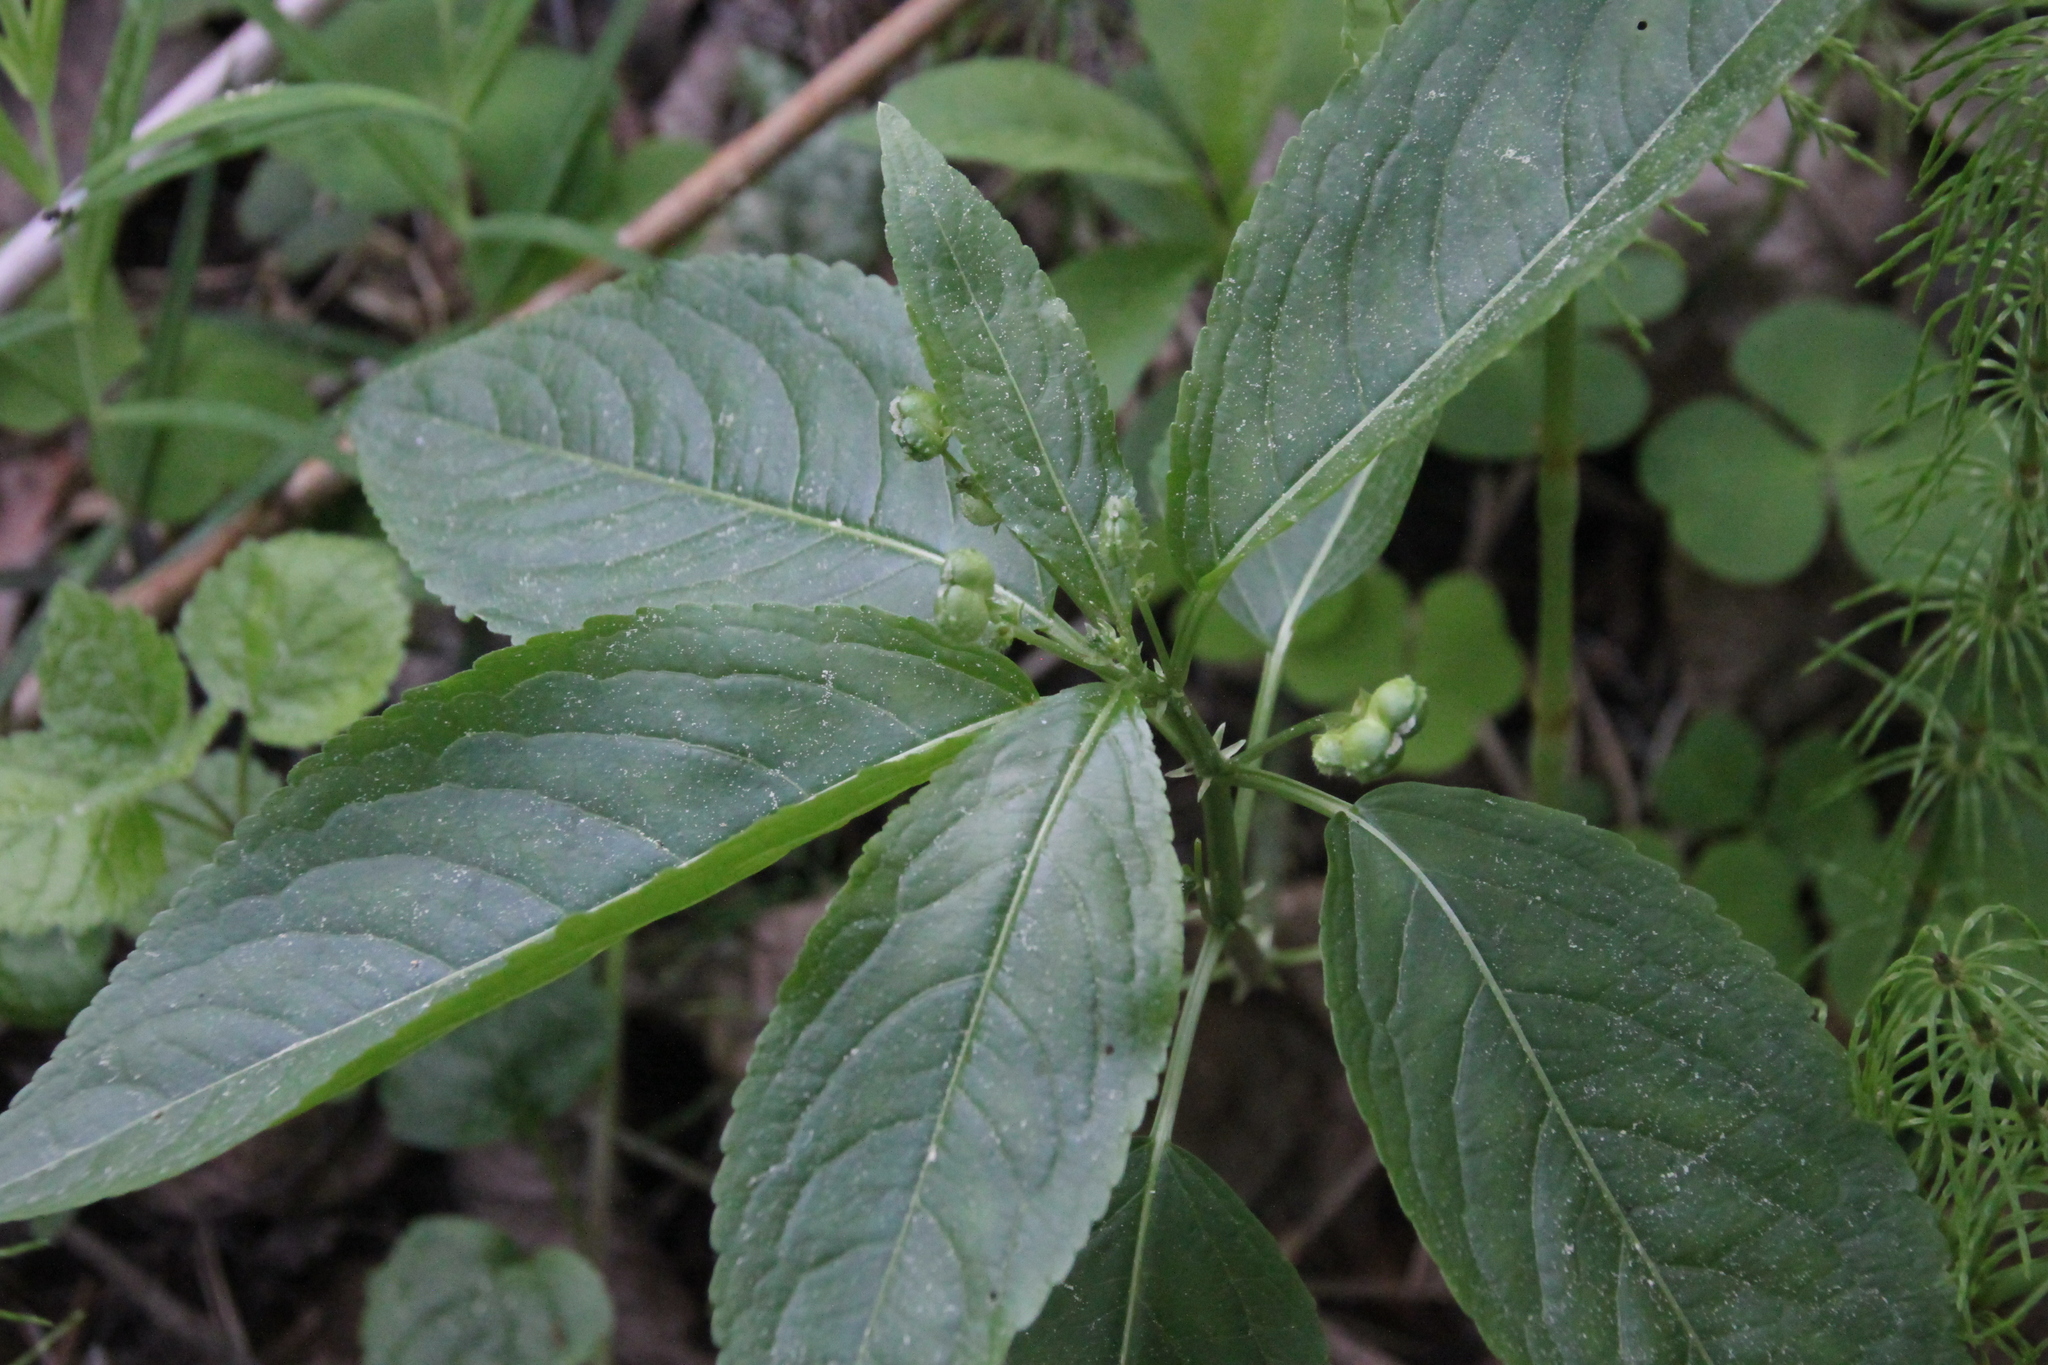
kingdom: Plantae
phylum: Tracheophyta
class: Magnoliopsida
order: Malpighiales
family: Euphorbiaceae
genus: Mercurialis
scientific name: Mercurialis perennis
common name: Dog mercury
